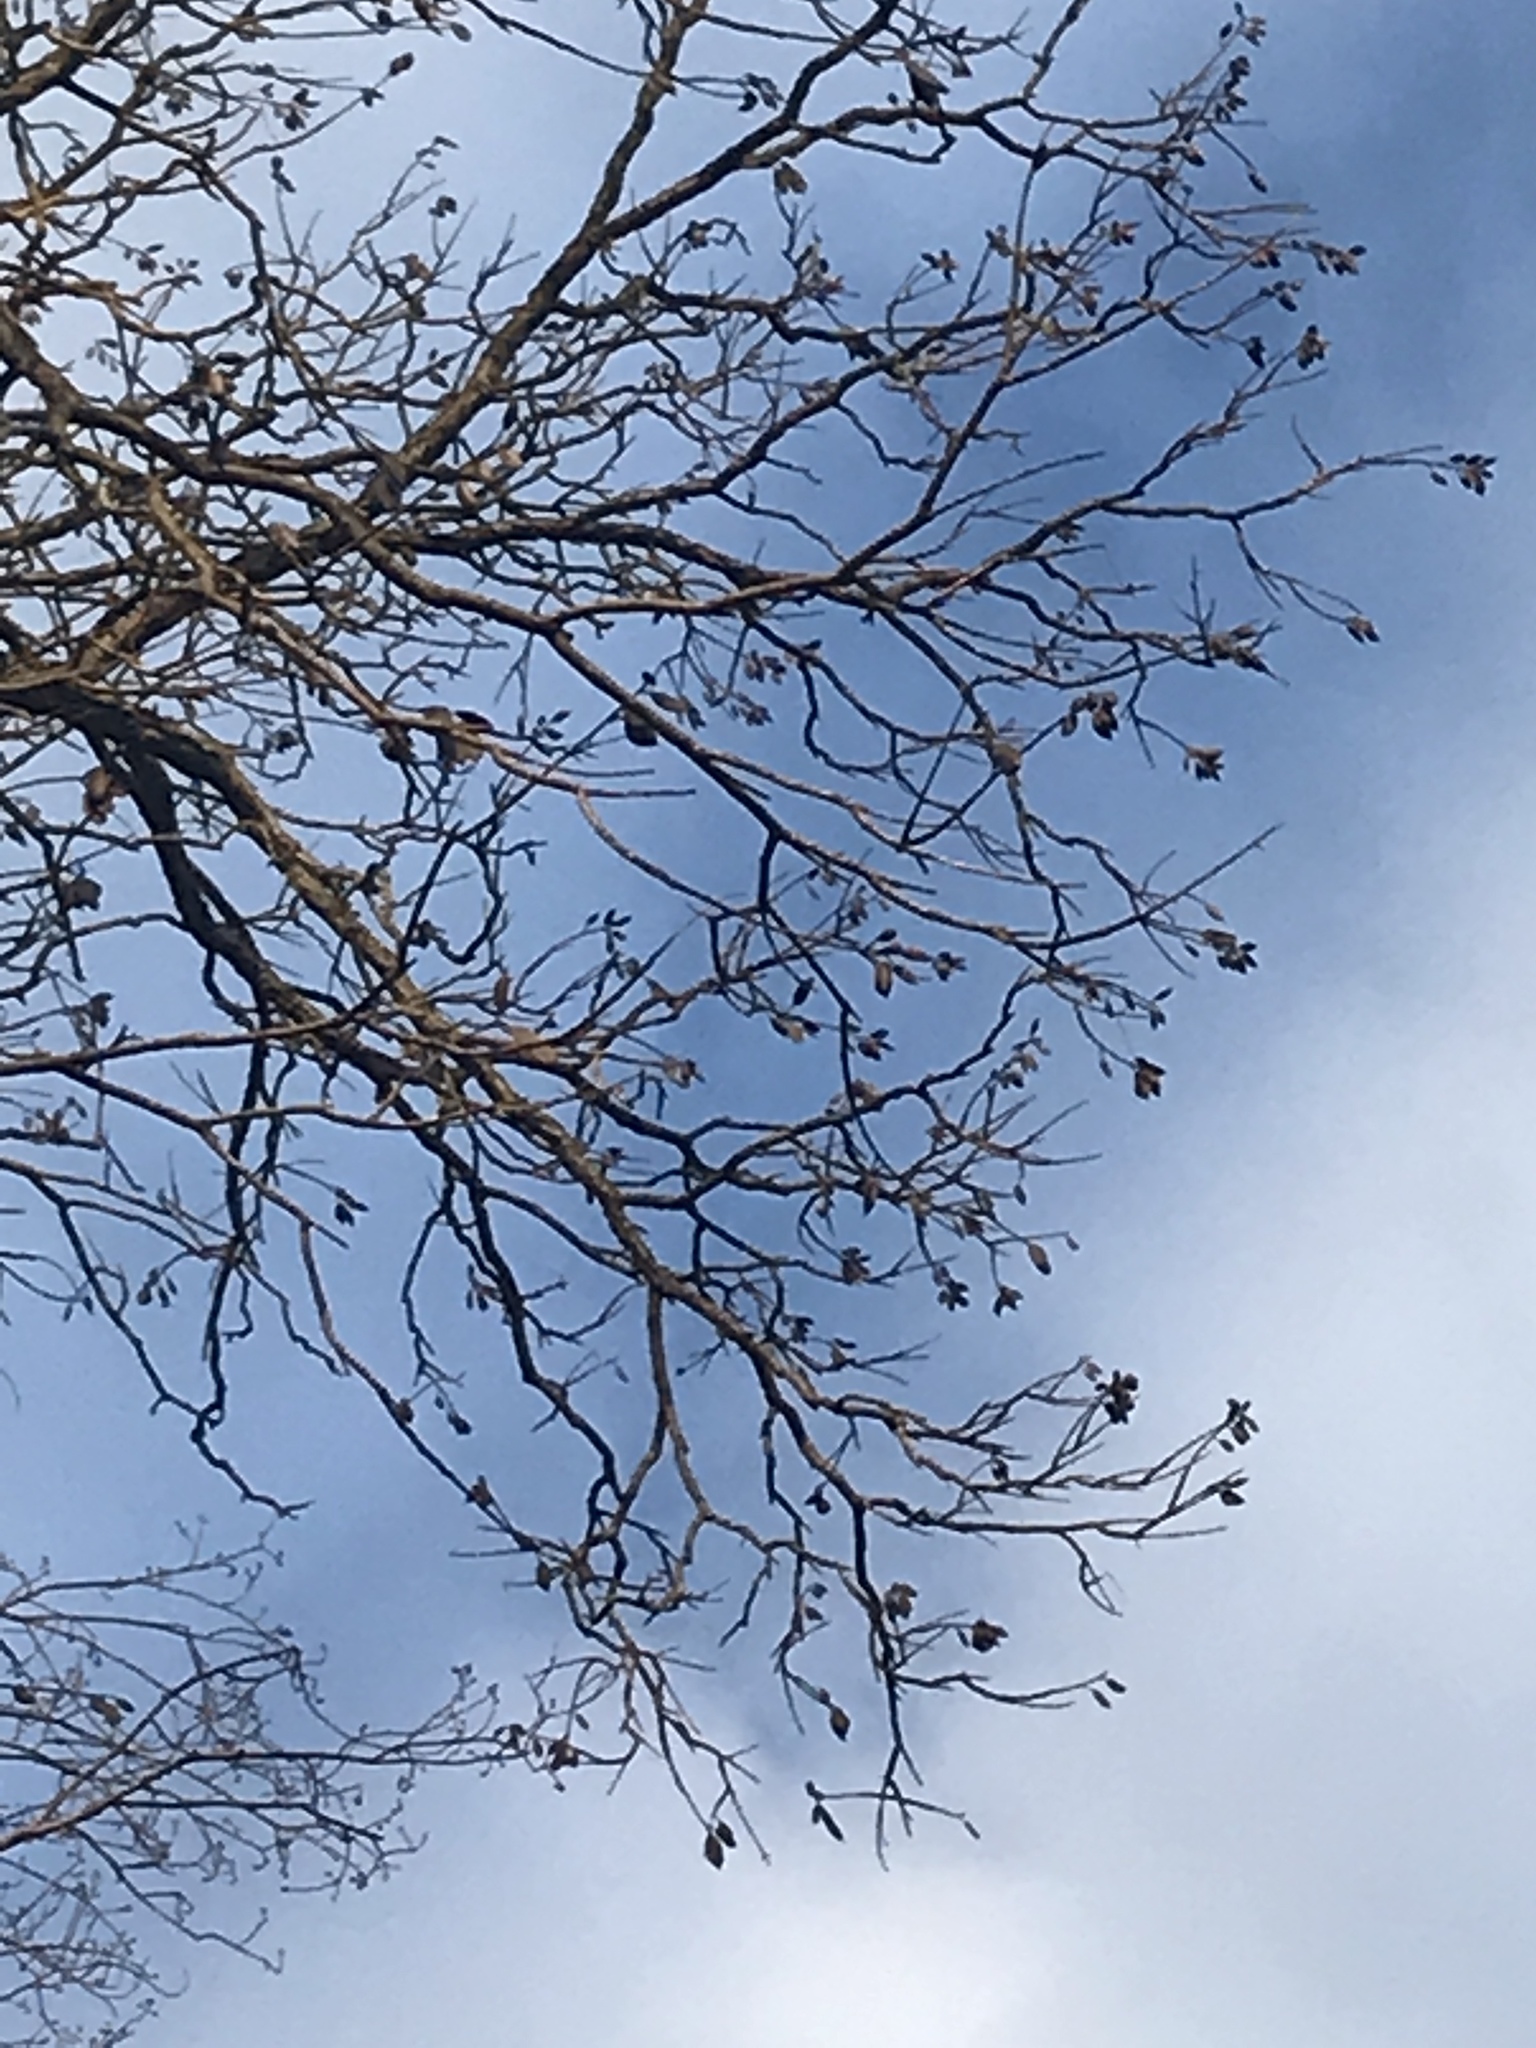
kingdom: Plantae
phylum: Tracheophyta
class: Magnoliopsida
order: Fabales
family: Fabaceae
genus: Gymnocladus
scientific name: Gymnocladus dioicus
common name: Kentucky coffee-tree
